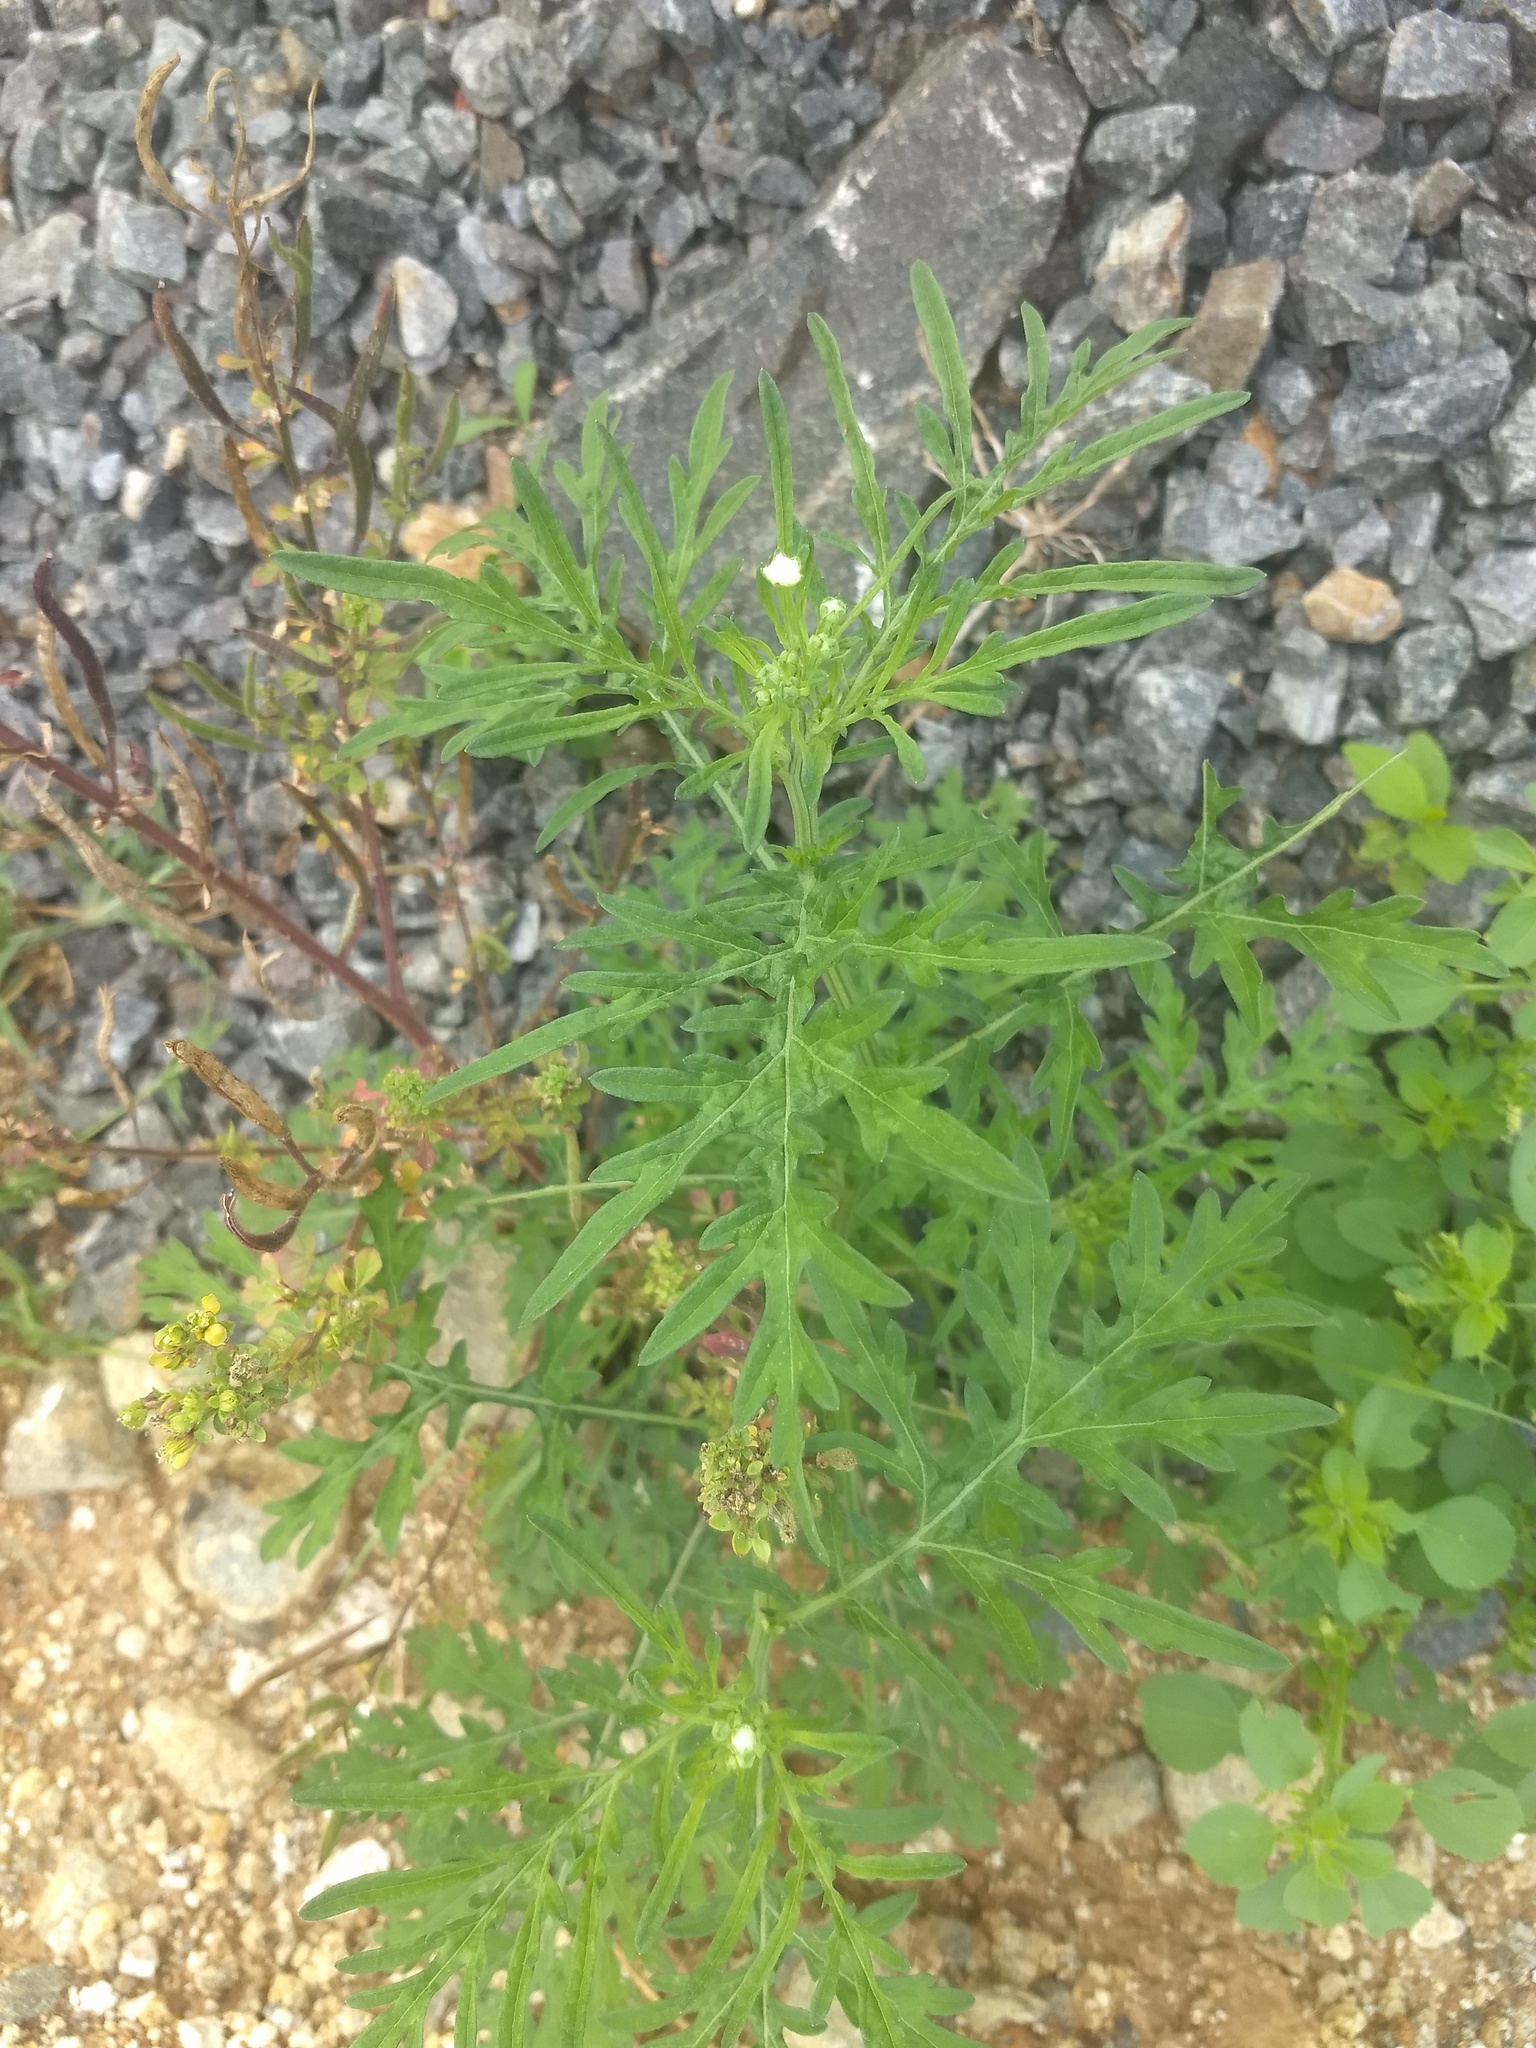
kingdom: Plantae
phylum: Tracheophyta
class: Magnoliopsida
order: Asterales
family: Asteraceae
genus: Parthenium
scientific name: Parthenium hysterophorus
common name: Santa maria feverfew
